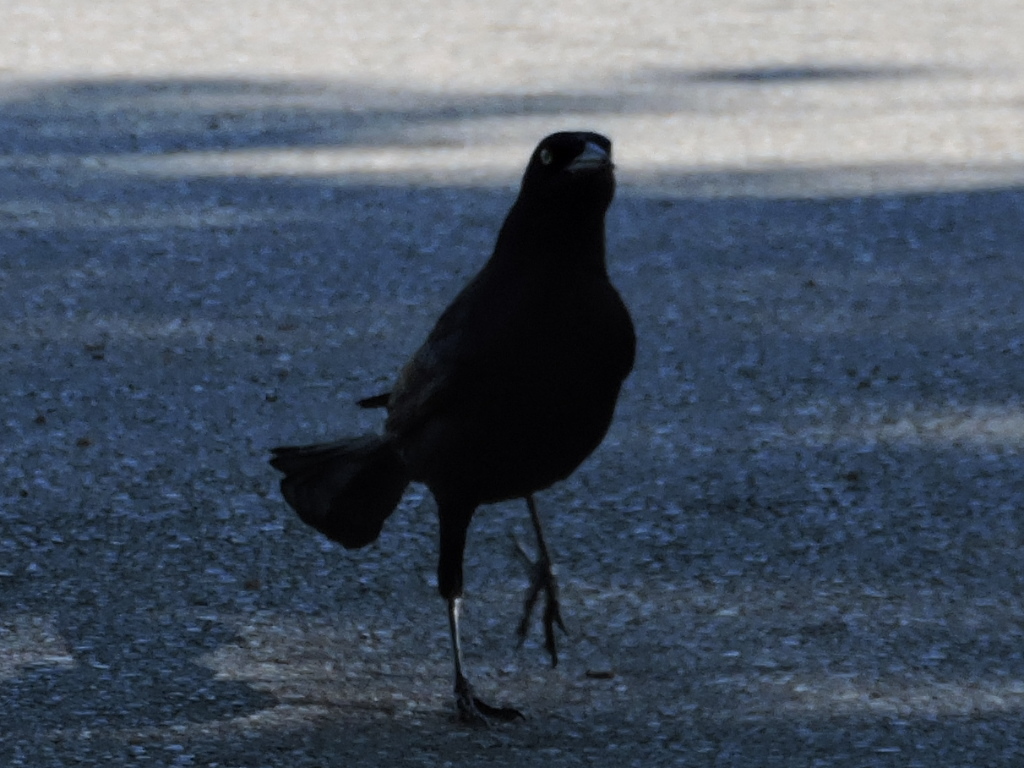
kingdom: Animalia
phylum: Chordata
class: Aves
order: Passeriformes
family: Icteridae
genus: Quiscalus
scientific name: Quiscalus mexicanus
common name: Great-tailed grackle
